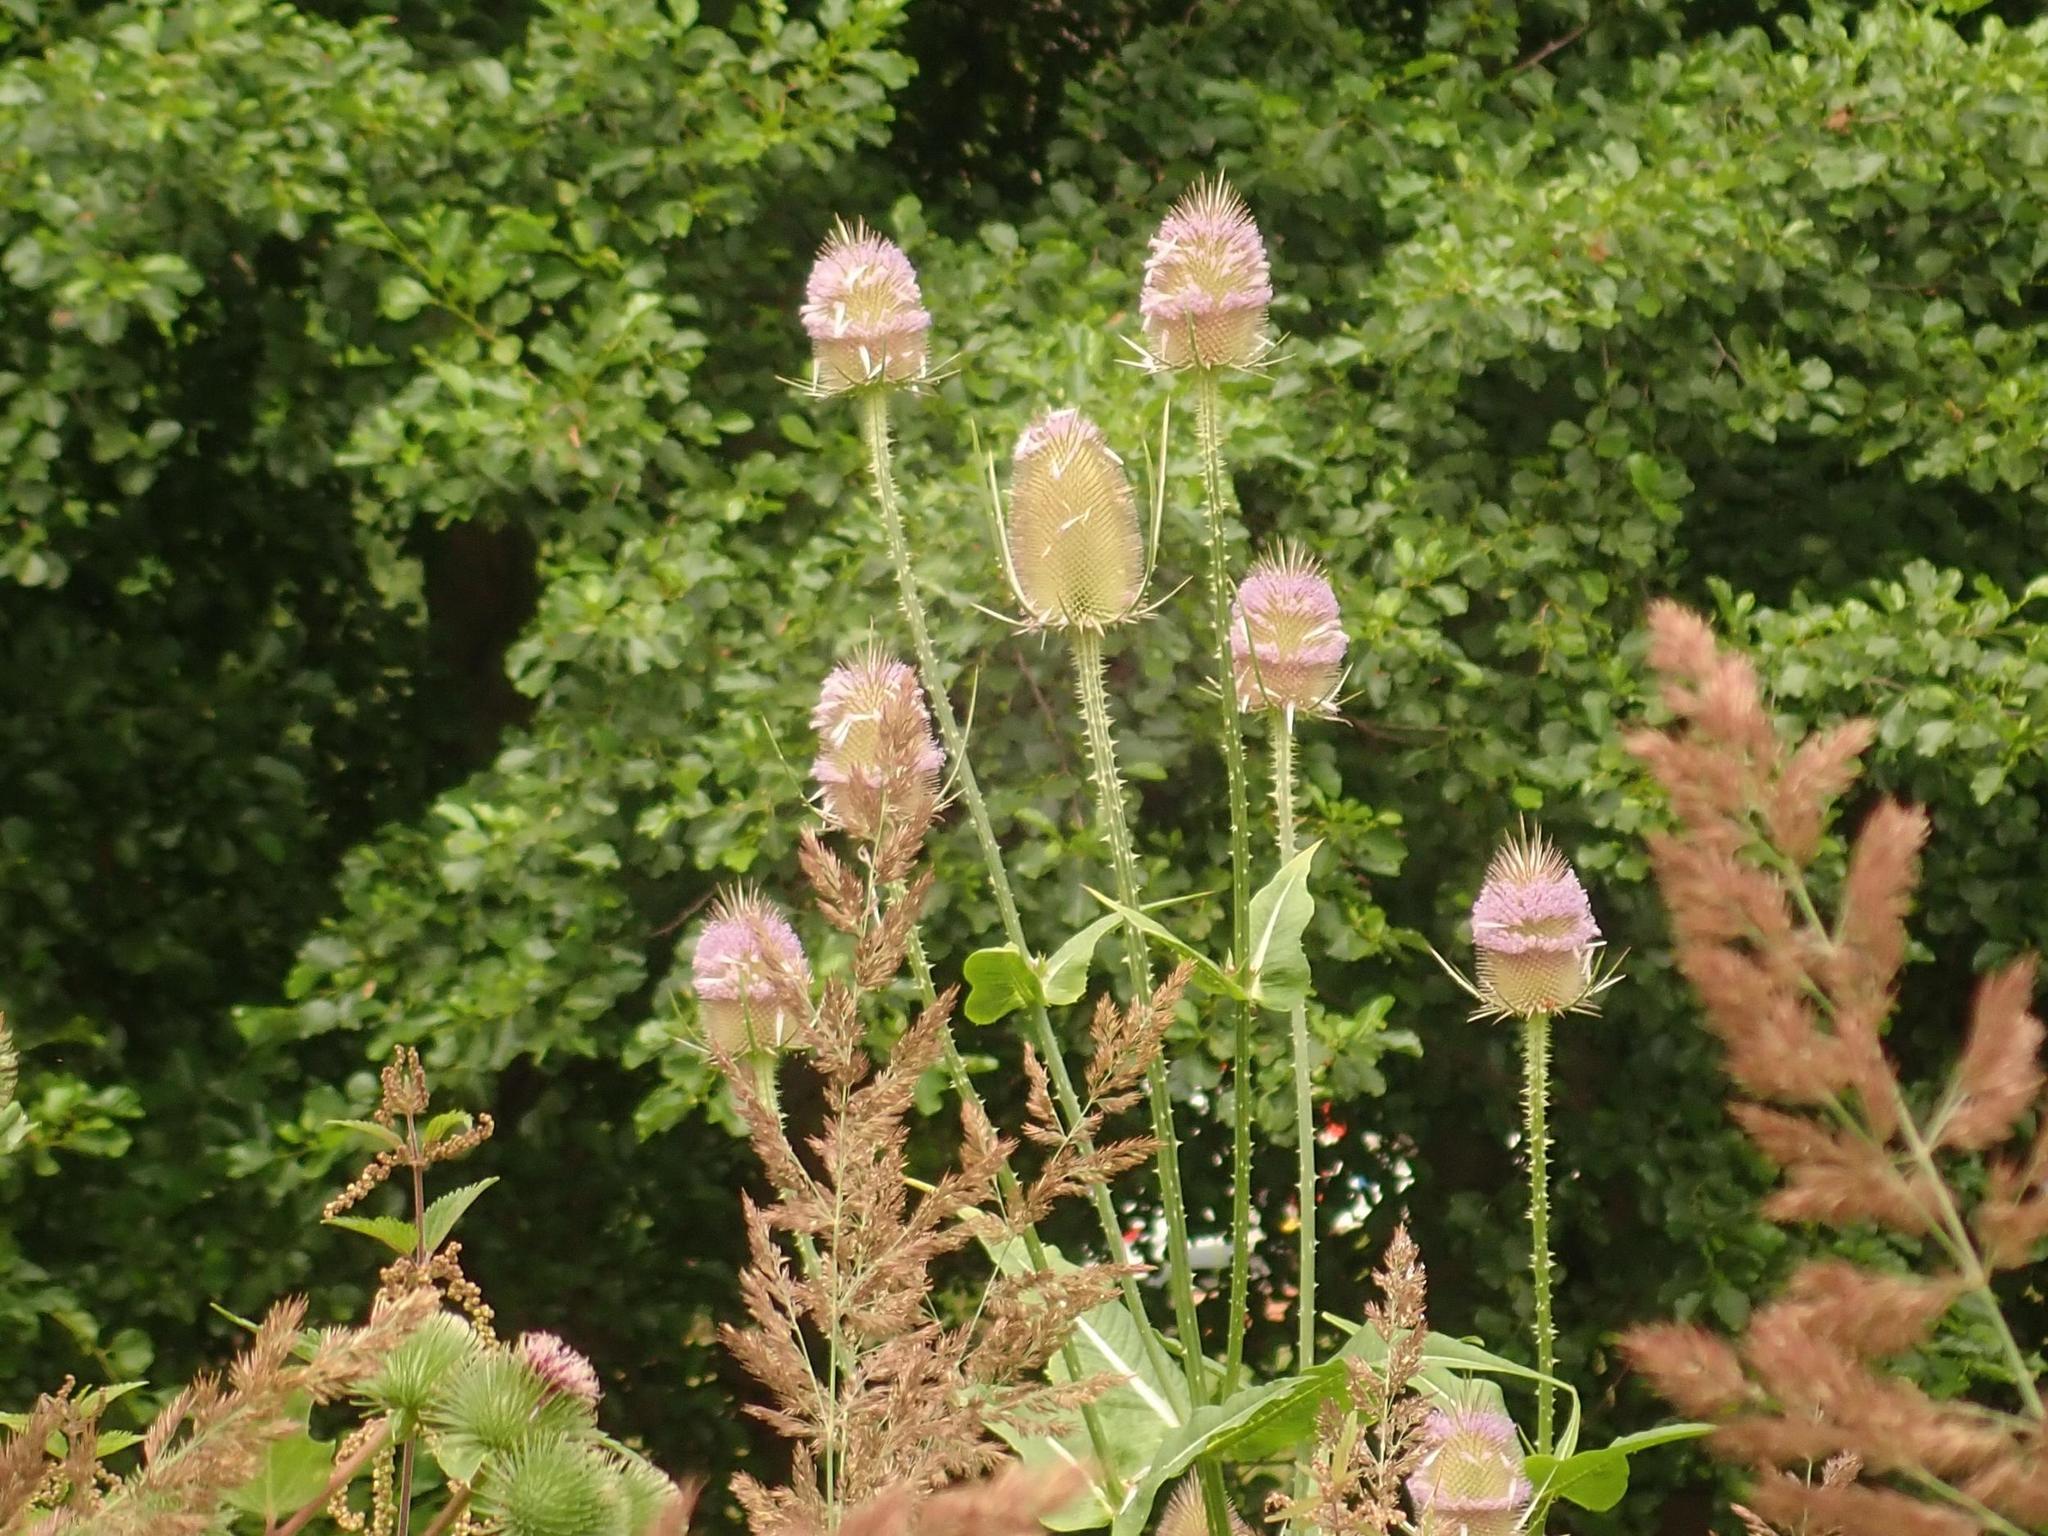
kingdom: Plantae
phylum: Tracheophyta
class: Magnoliopsida
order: Dipsacales
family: Caprifoliaceae
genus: Dipsacus
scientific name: Dipsacus fullonum
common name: Teasel
